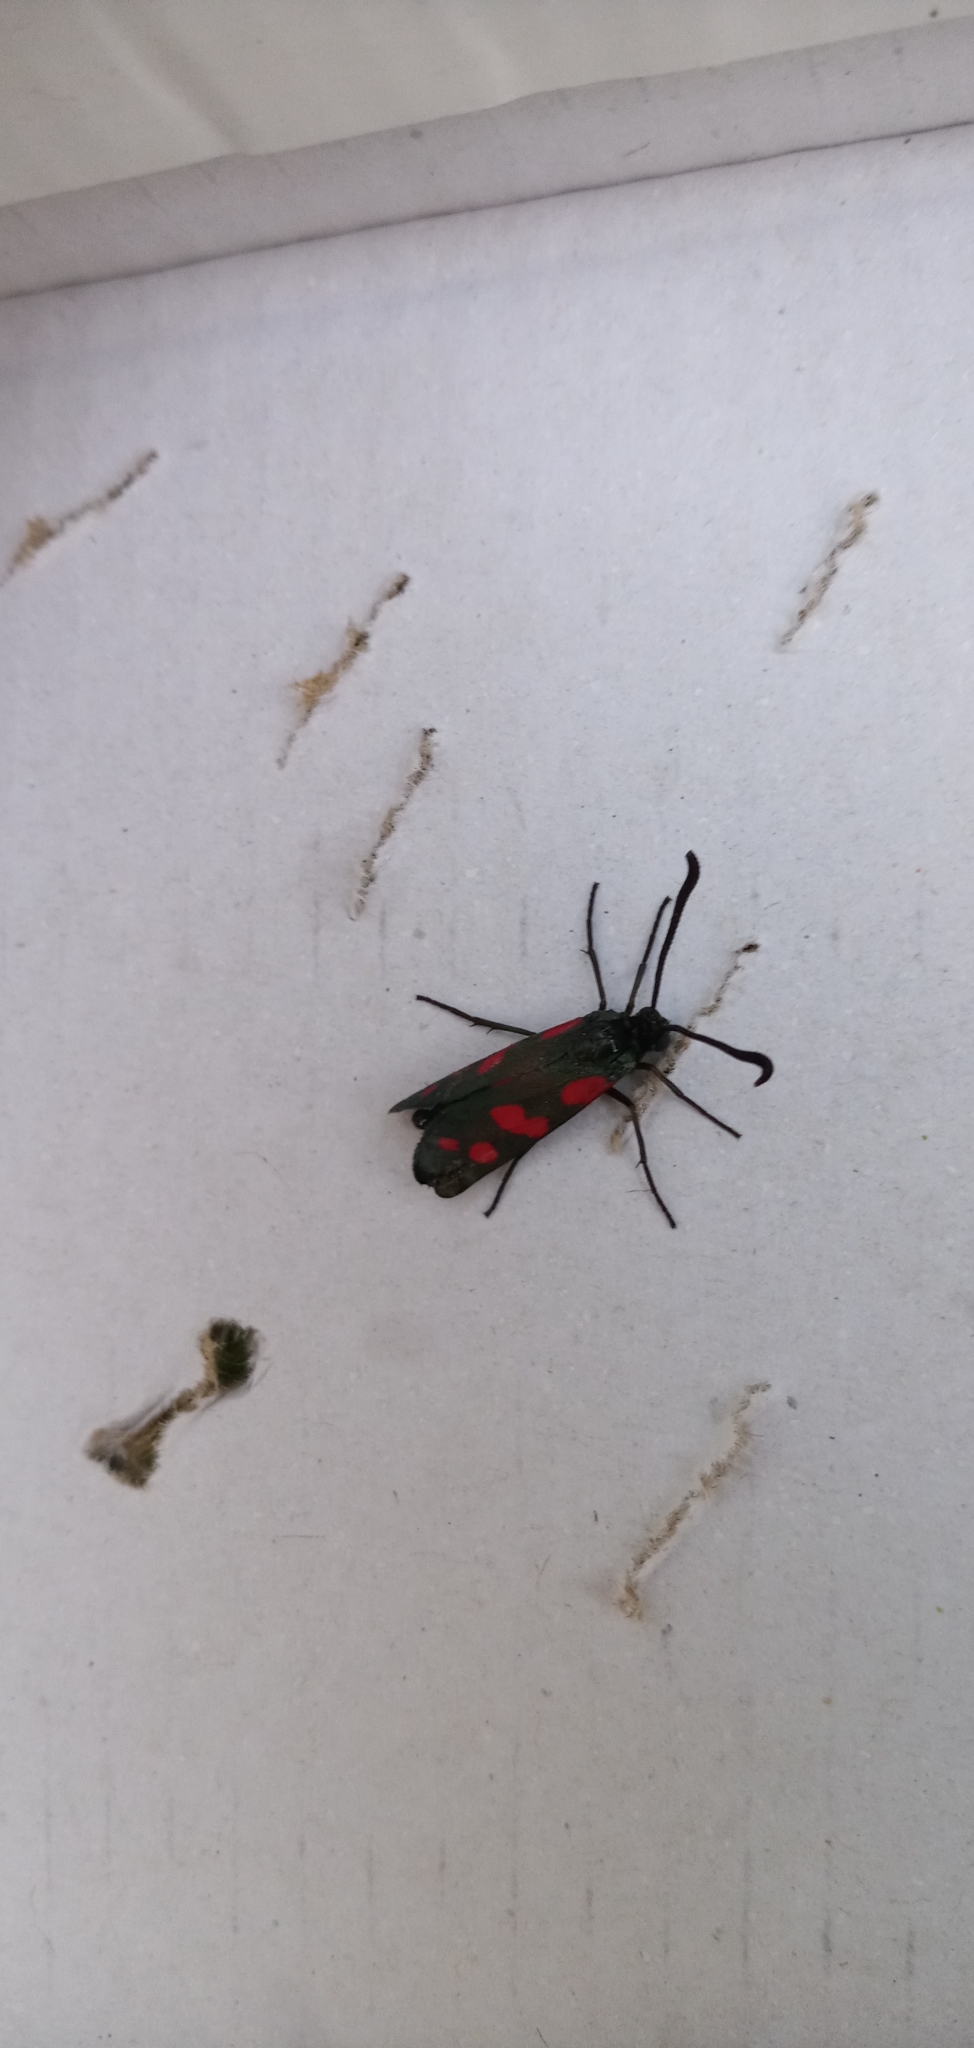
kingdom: Animalia
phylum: Arthropoda
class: Insecta
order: Lepidoptera
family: Zygaenidae
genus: Zygaena
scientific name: Zygaena filipendulae
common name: Six-spot burnet
